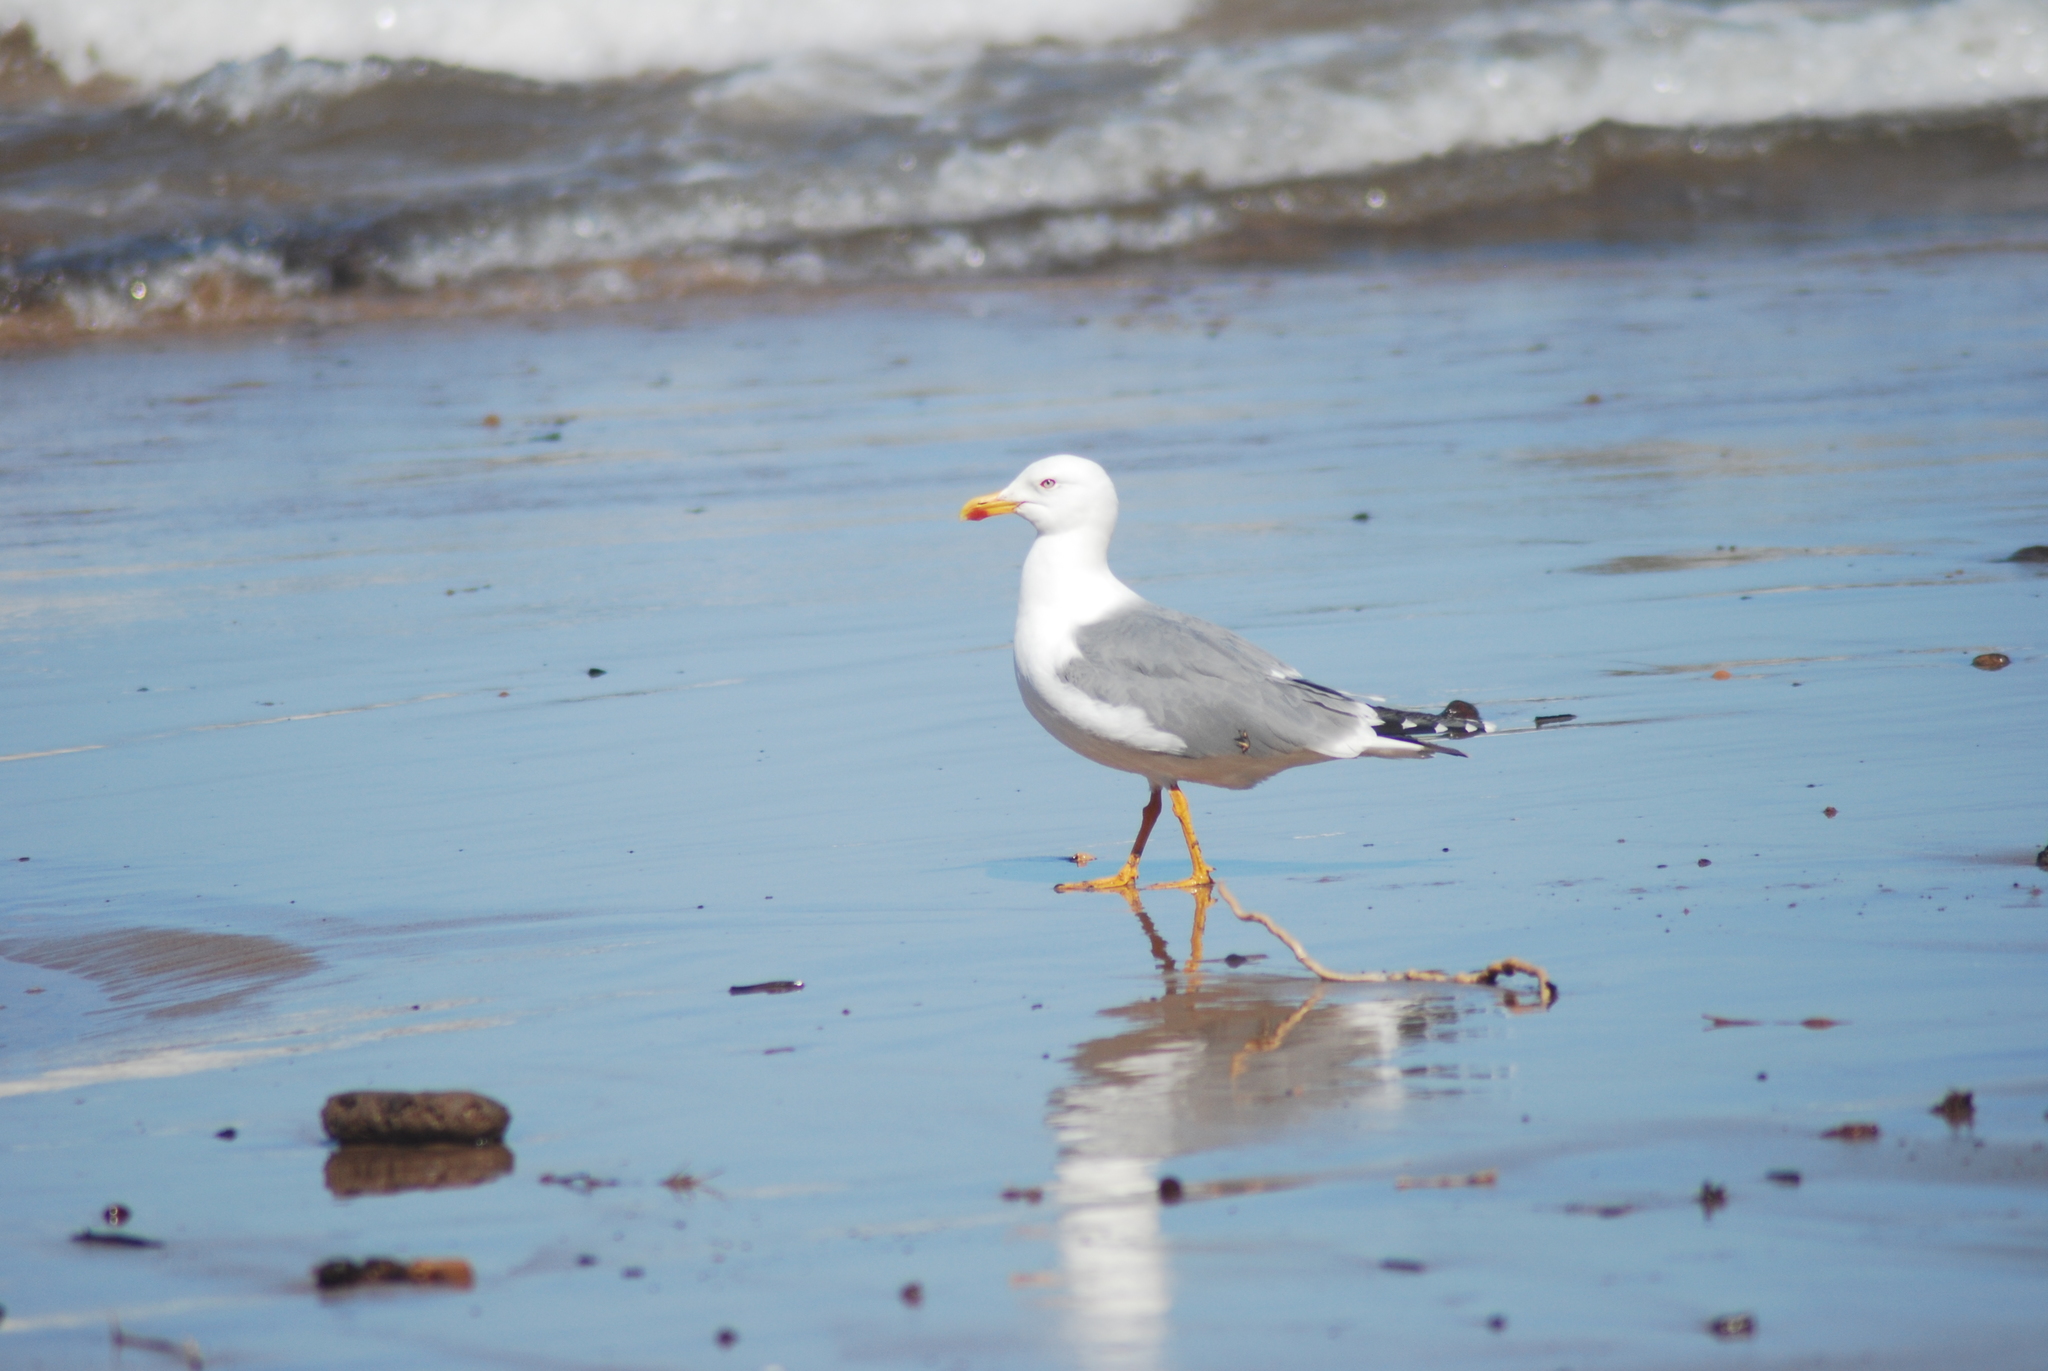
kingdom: Animalia
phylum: Chordata
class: Aves
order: Charadriiformes
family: Laridae
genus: Larus
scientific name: Larus michahellis
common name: Yellow-legged gull
